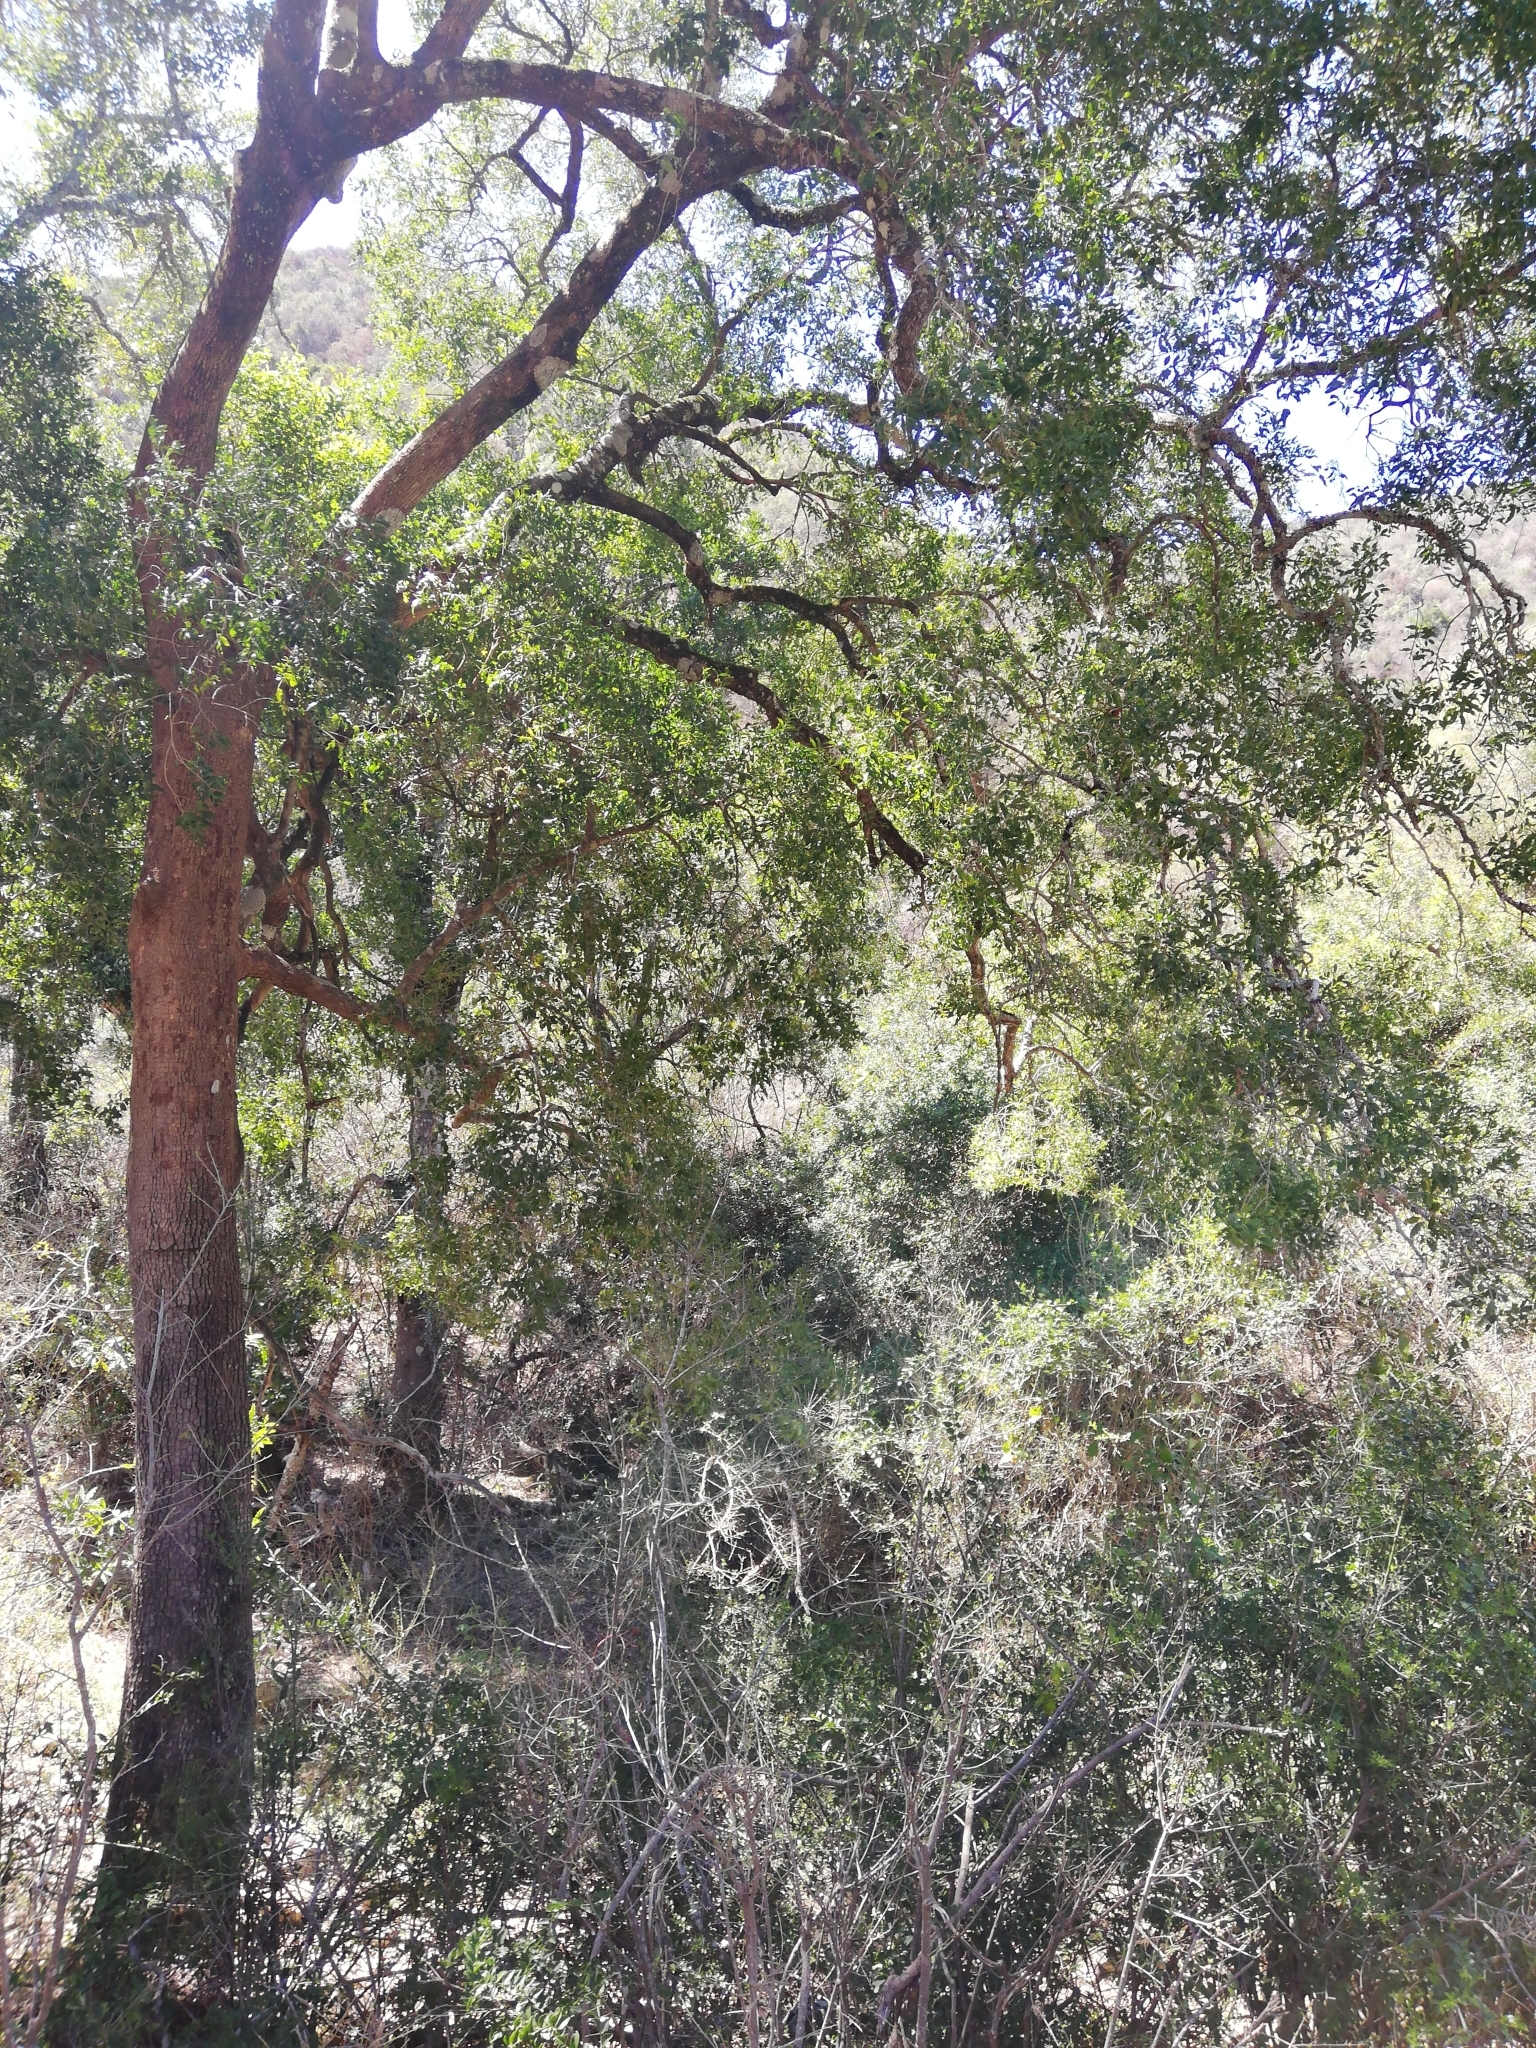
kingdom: Plantae
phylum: Tracheophyta
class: Magnoliopsida
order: Lamiales
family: Oleaceae
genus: Olea
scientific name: Olea woodiana
